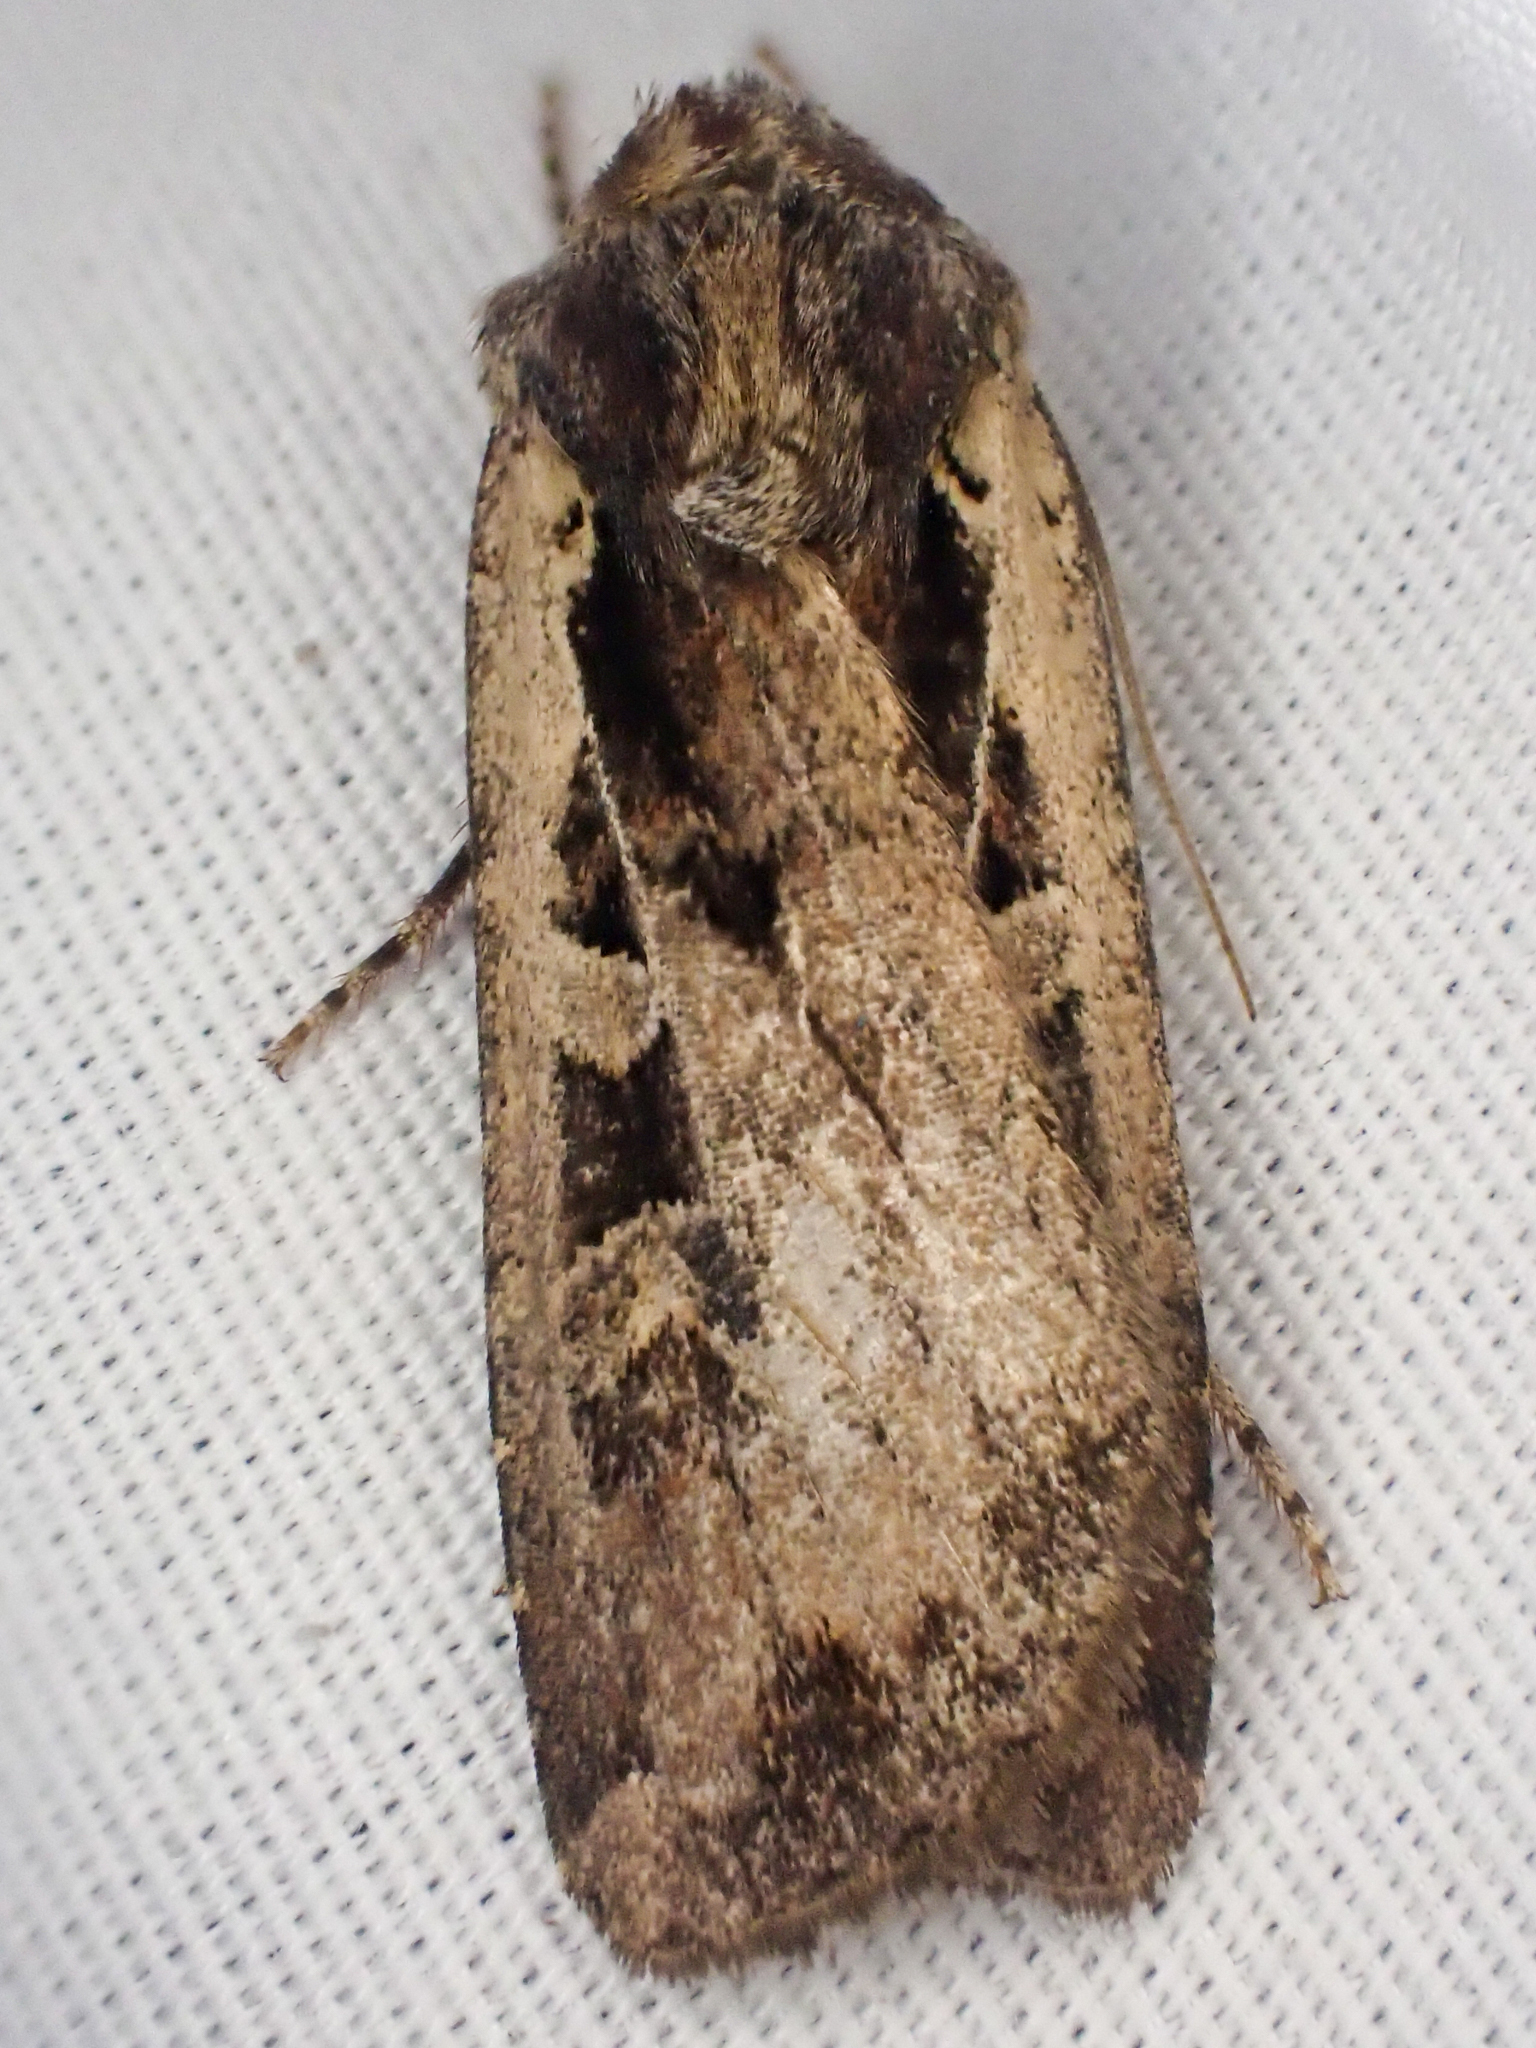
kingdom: Animalia
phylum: Arthropoda
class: Insecta
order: Lepidoptera
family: Noctuidae
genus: Euxoa
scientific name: Euxoa ochrogaster
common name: Red-backed cutworm moth
